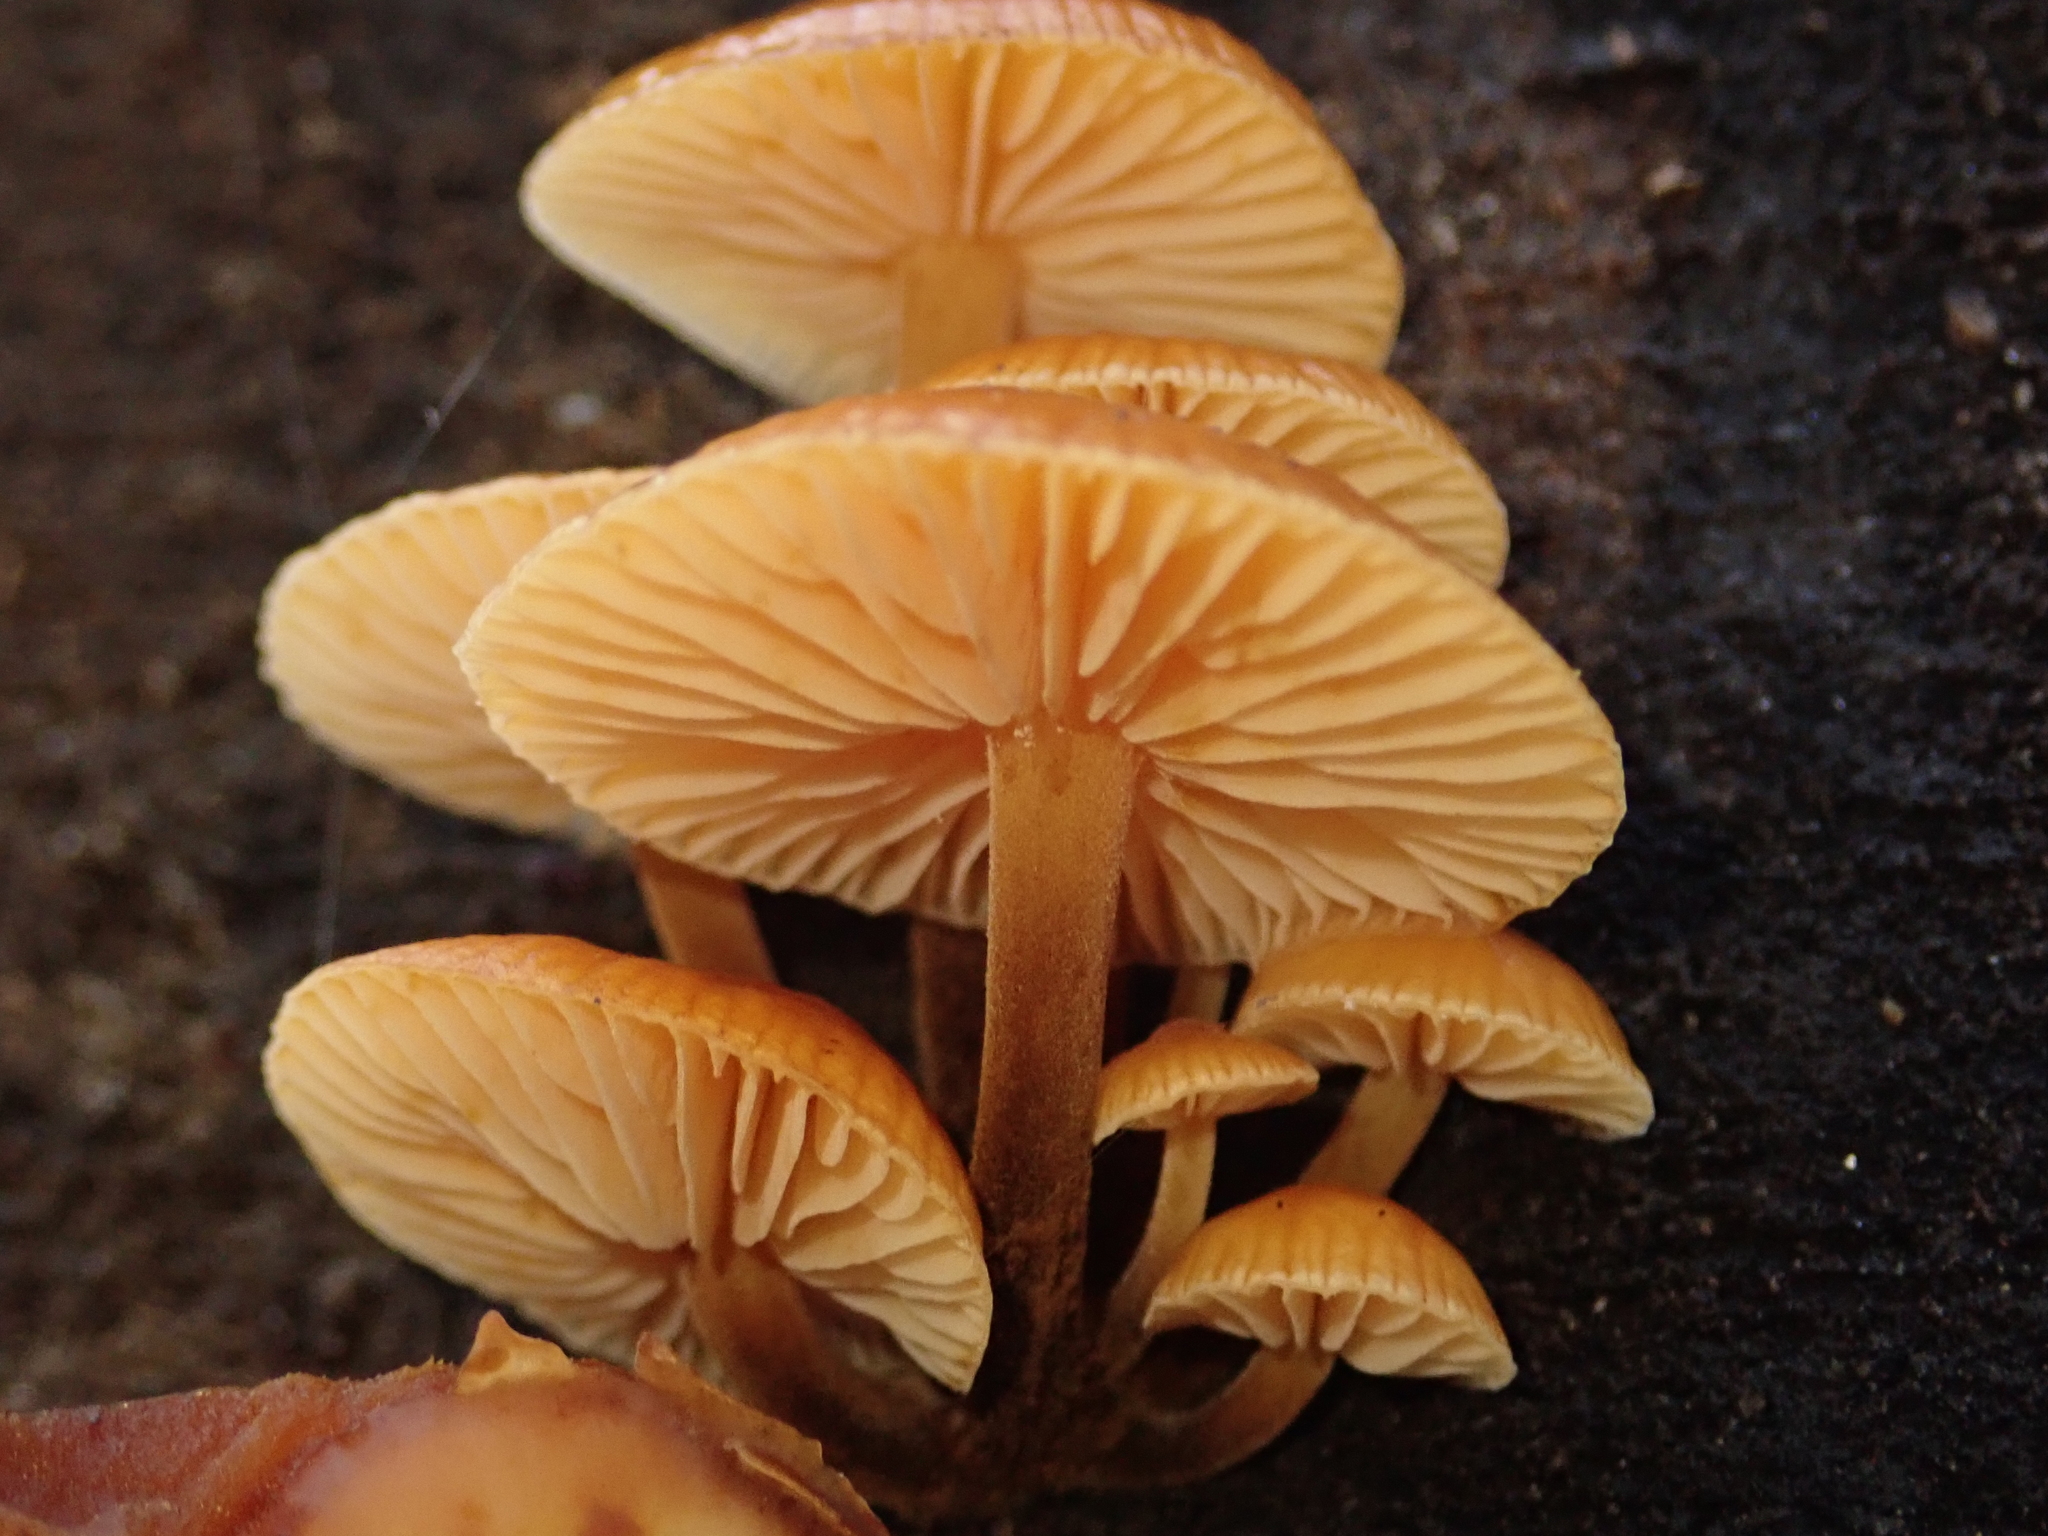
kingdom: Fungi
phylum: Basidiomycota
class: Agaricomycetes
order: Agaricales
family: Physalacriaceae
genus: Flammulina
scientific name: Flammulina
